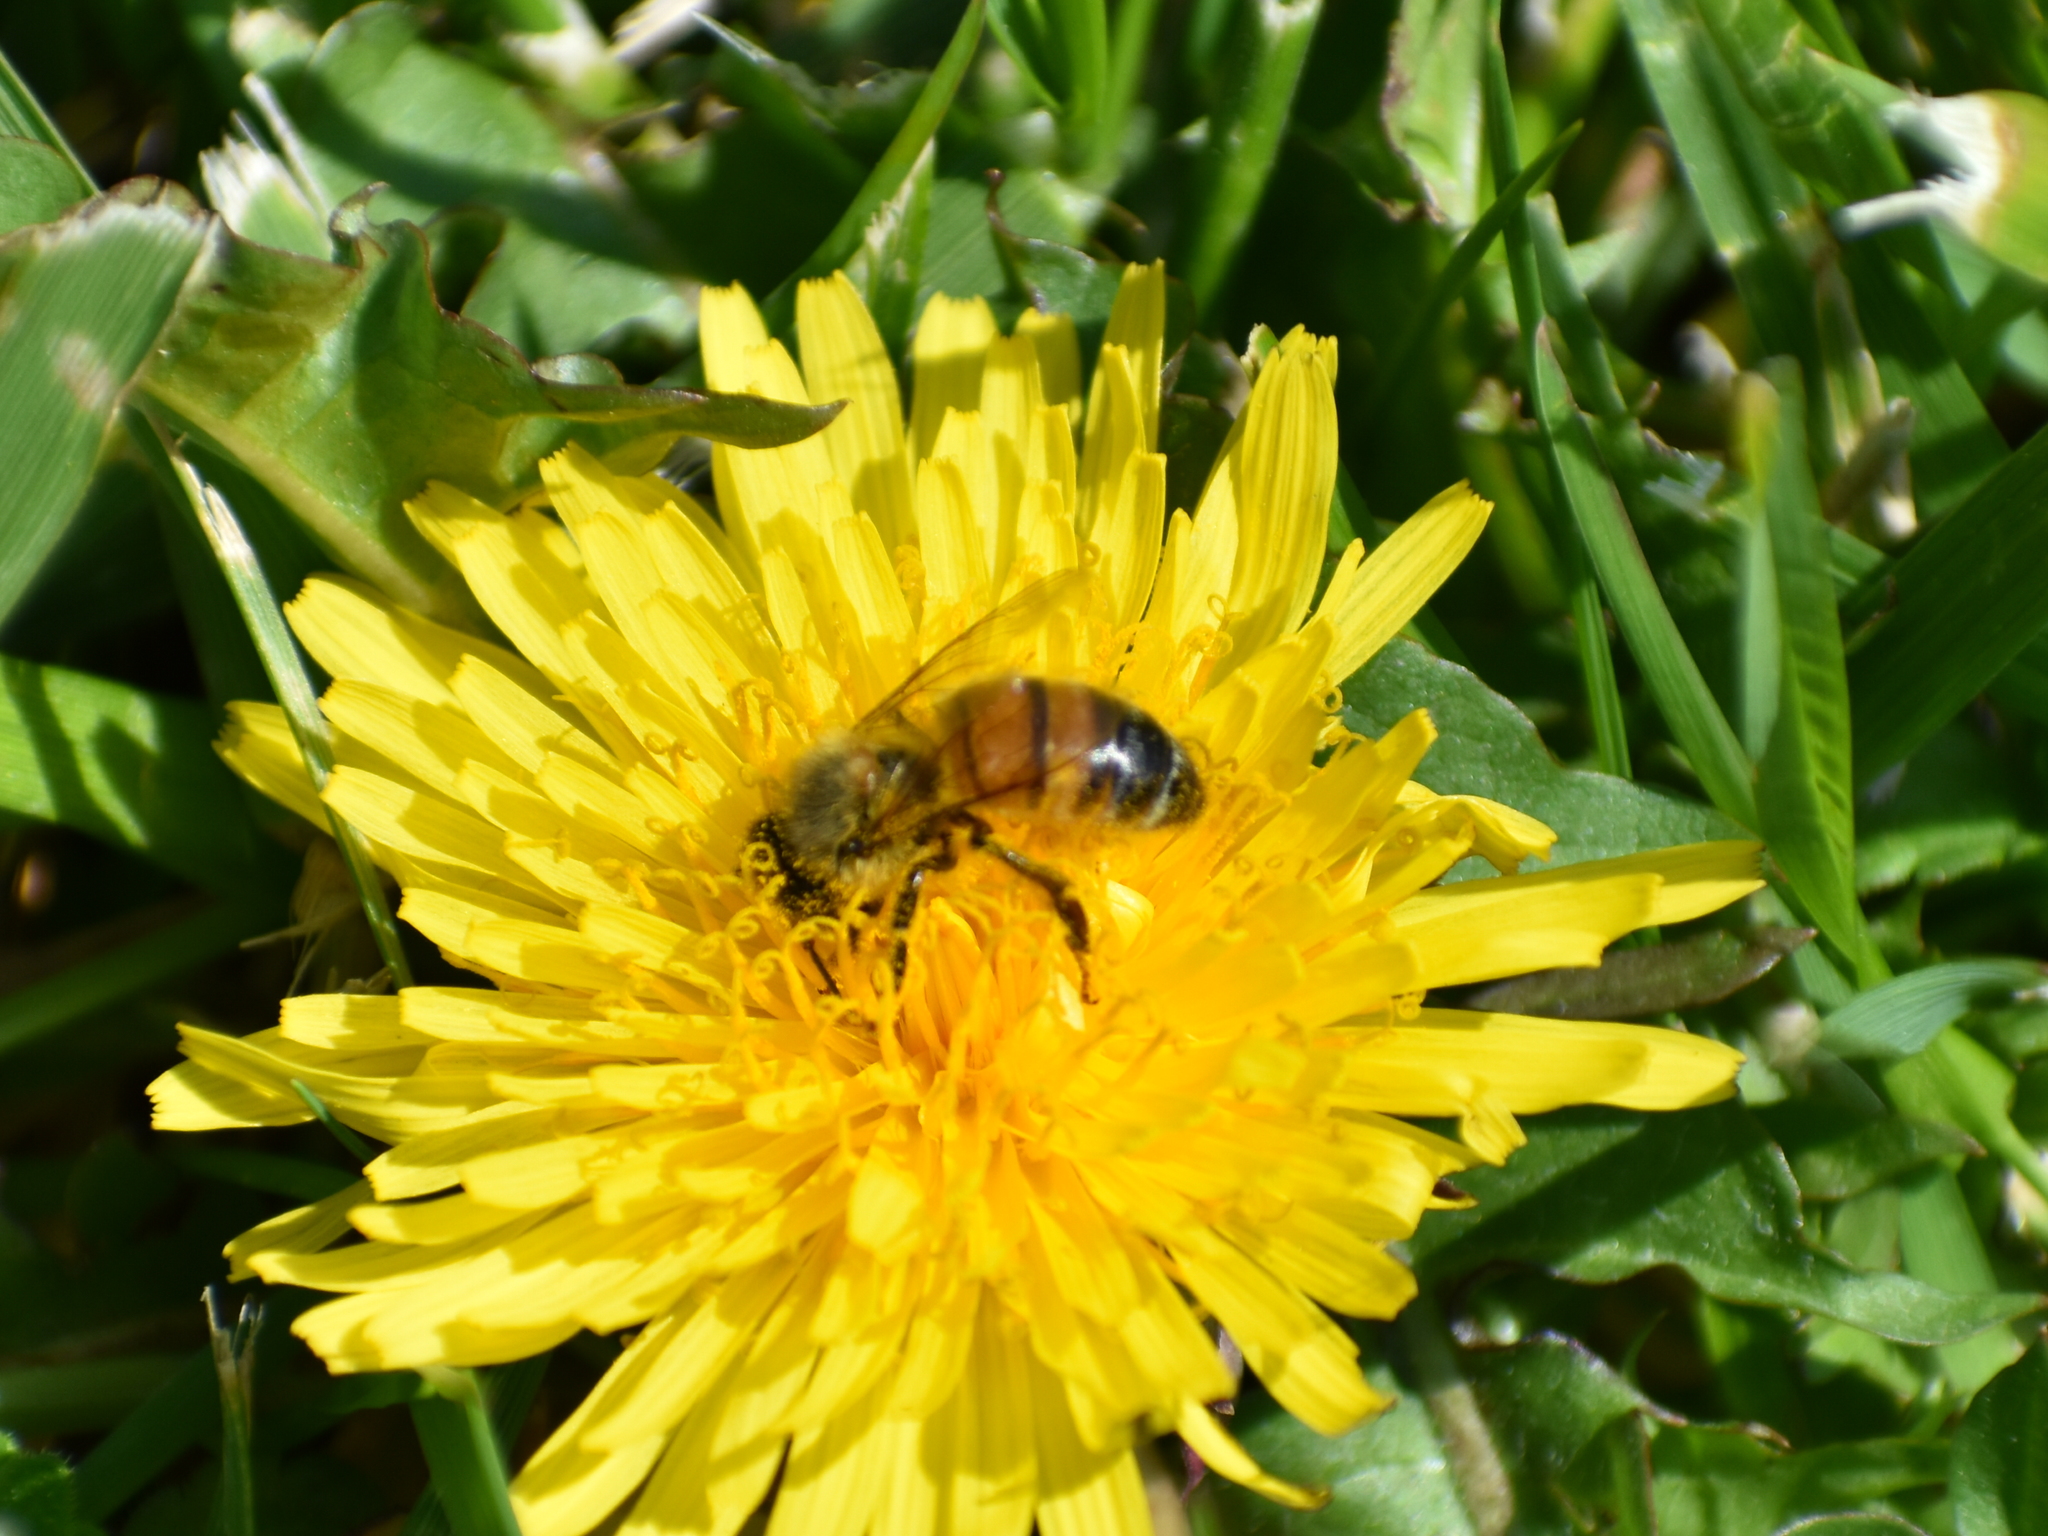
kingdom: Animalia
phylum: Arthropoda
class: Insecta
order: Hymenoptera
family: Apidae
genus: Apis
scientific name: Apis mellifera
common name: Honey bee
